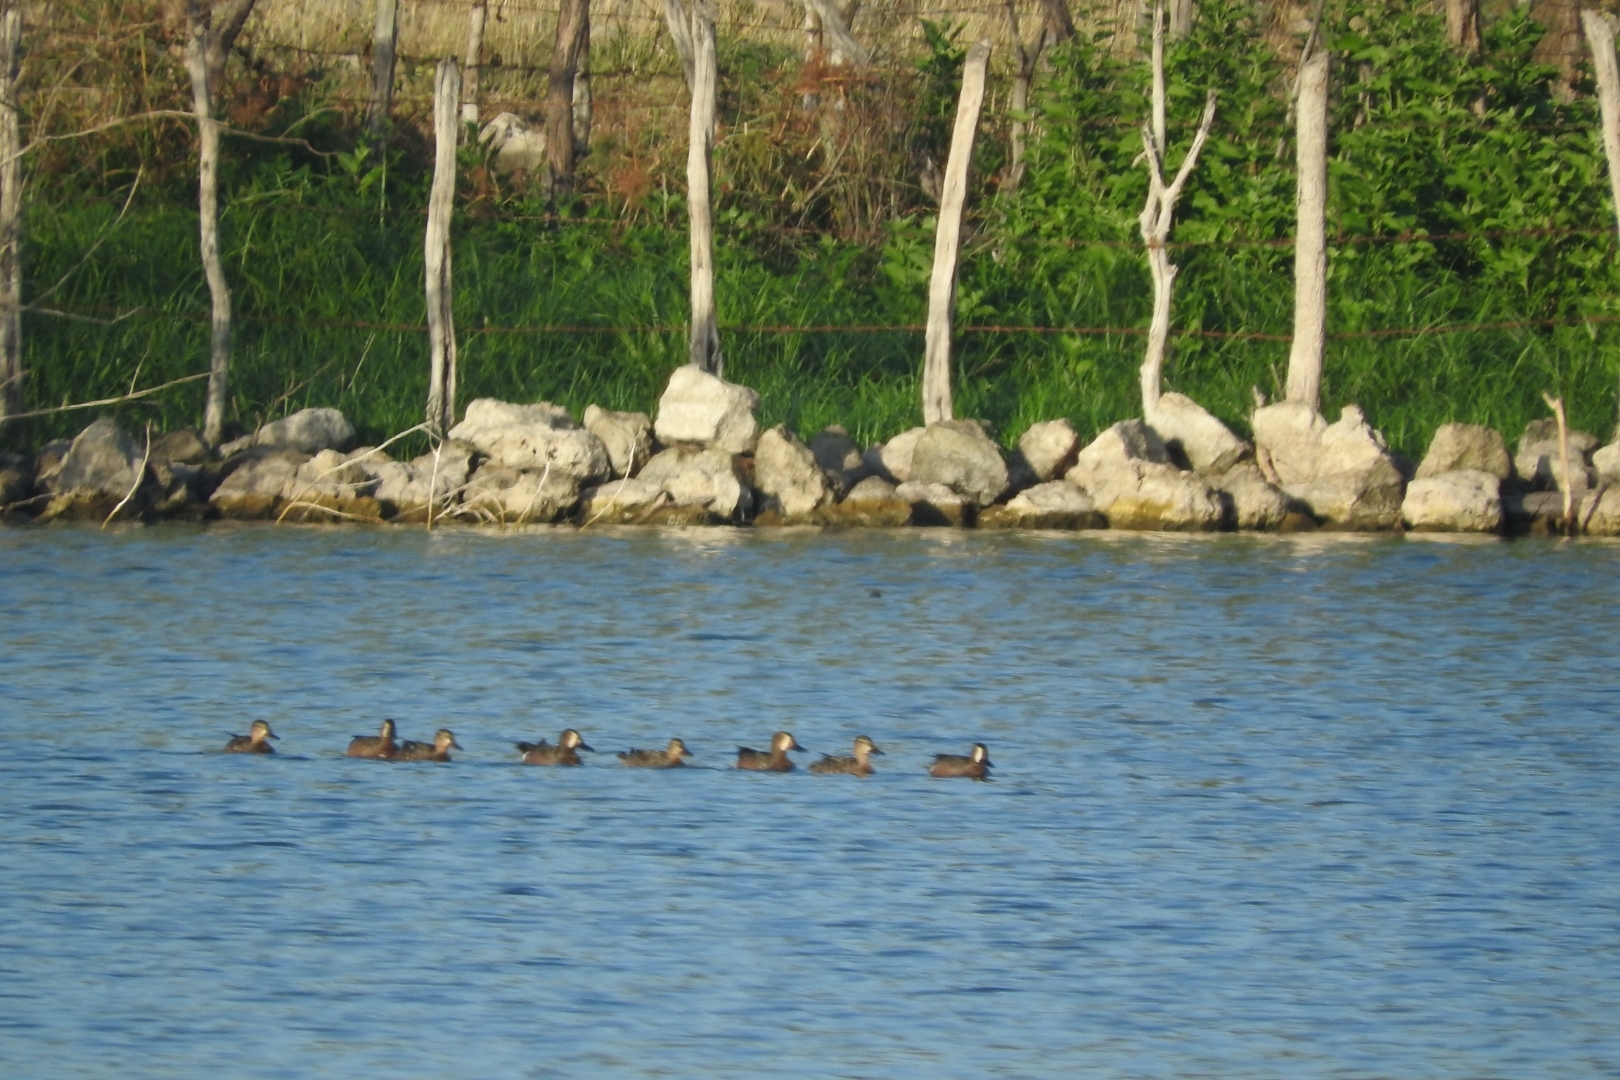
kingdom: Animalia
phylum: Chordata
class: Aves
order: Anseriformes
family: Anatidae
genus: Spatula
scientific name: Spatula discors
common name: Blue-winged teal
